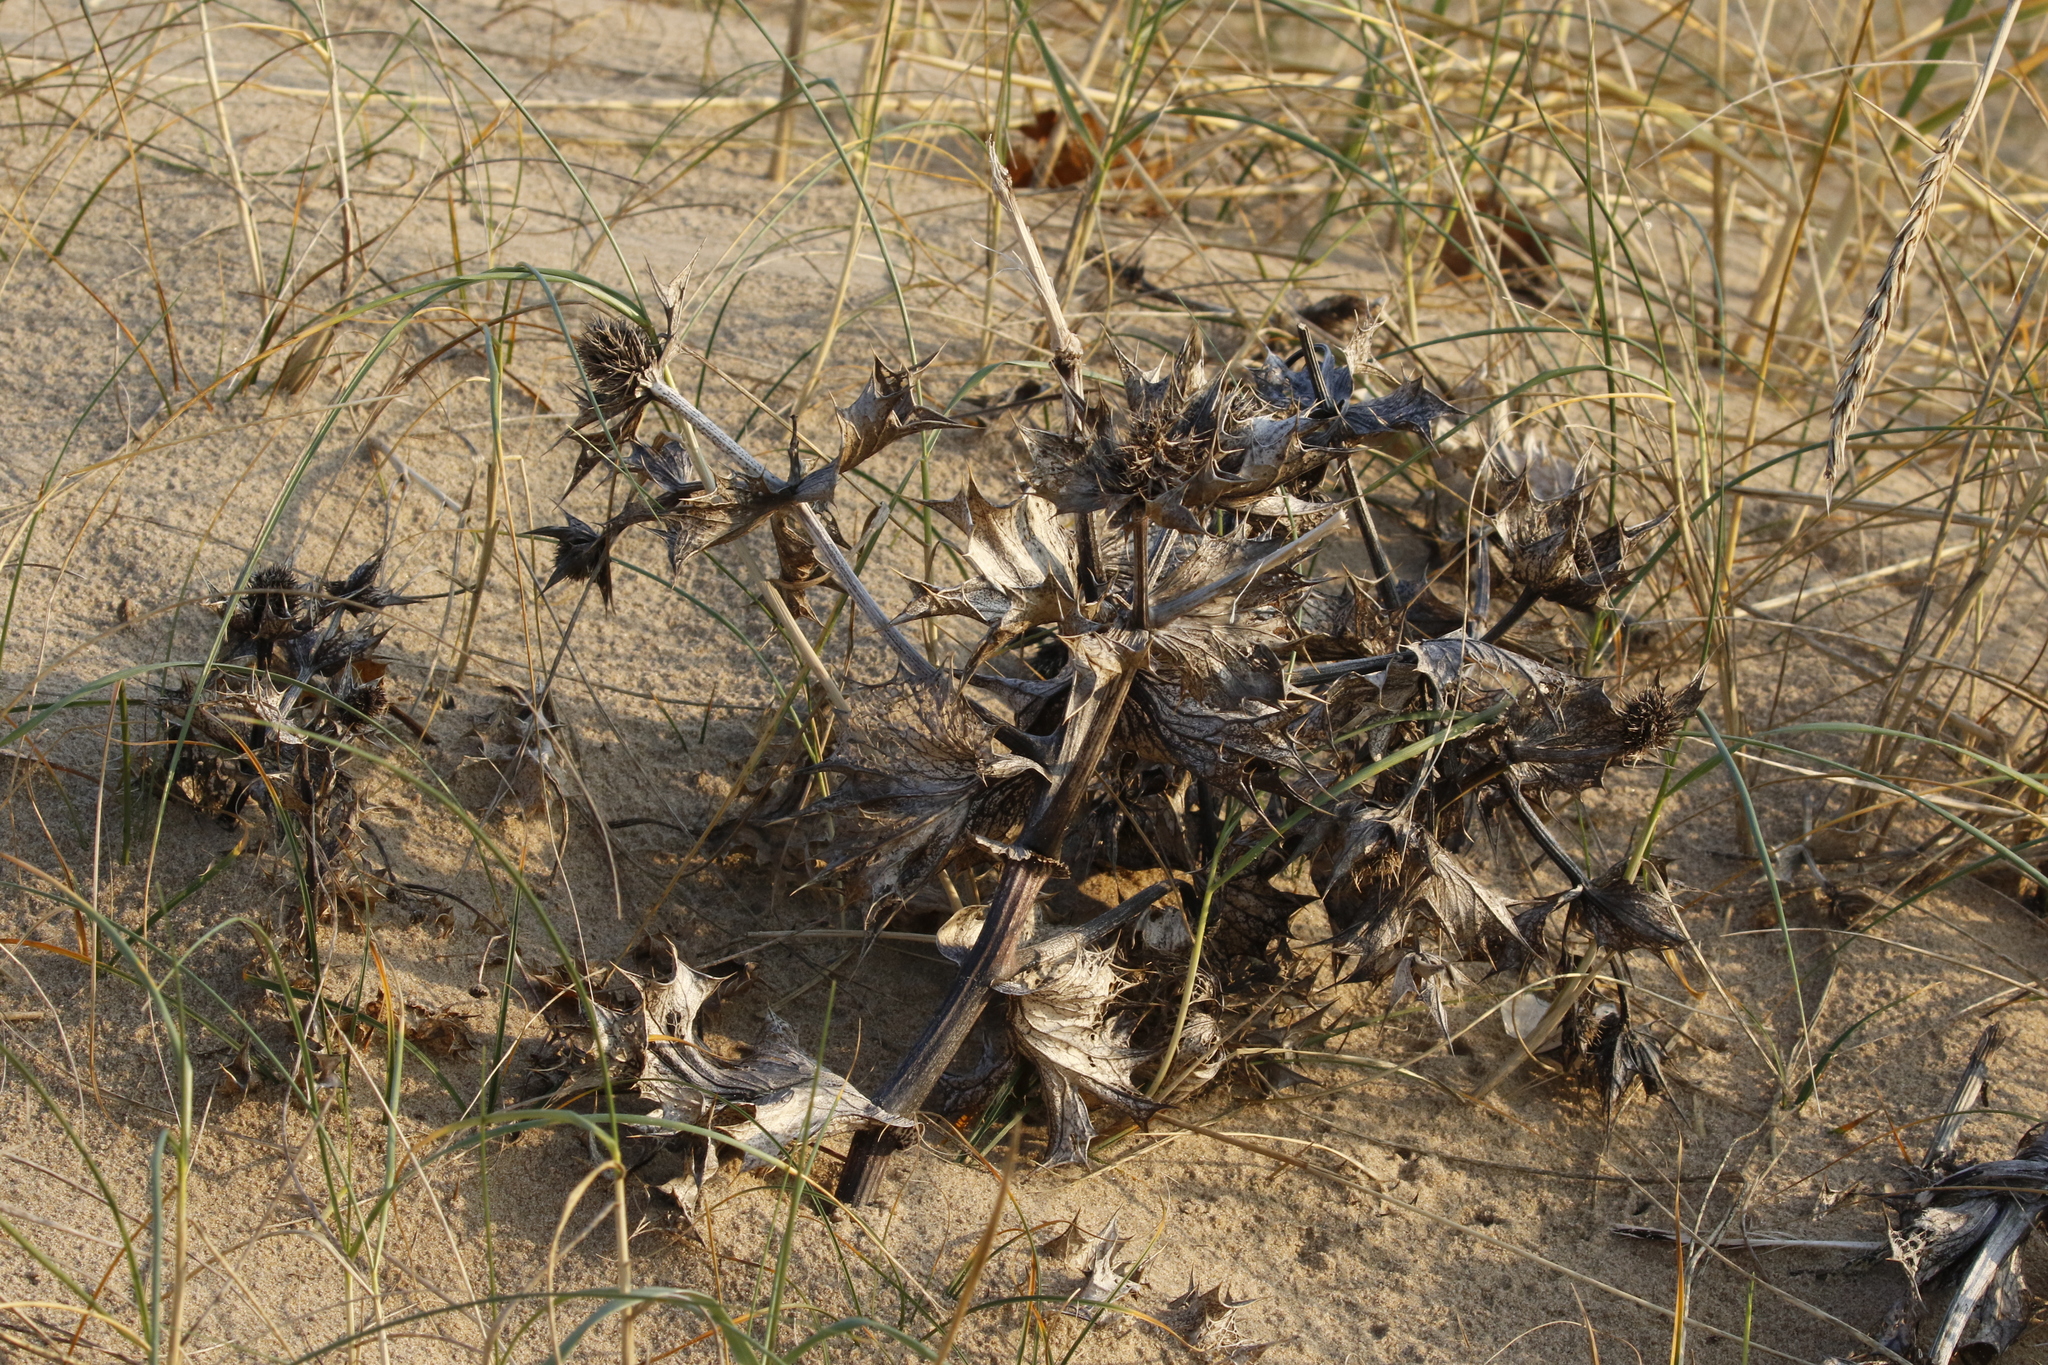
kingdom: Plantae
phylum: Tracheophyta
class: Magnoliopsida
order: Apiales
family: Apiaceae
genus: Eryngium
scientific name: Eryngium maritimum
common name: Sea-holly
